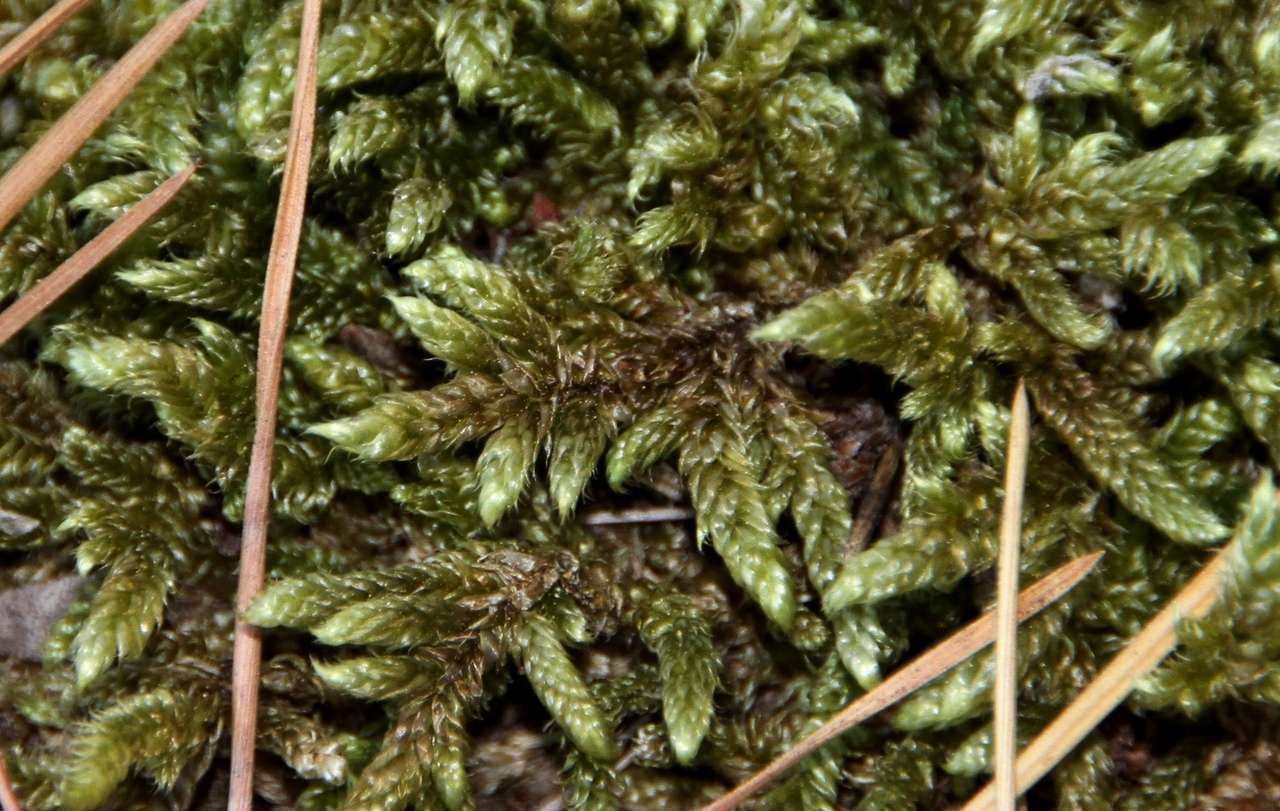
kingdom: Plantae
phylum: Bryophyta
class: Bryopsida
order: Hypnales
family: Hypnaceae
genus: Hypnum
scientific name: Hypnum cupressiforme
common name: Cypress-leaved plait-moss
